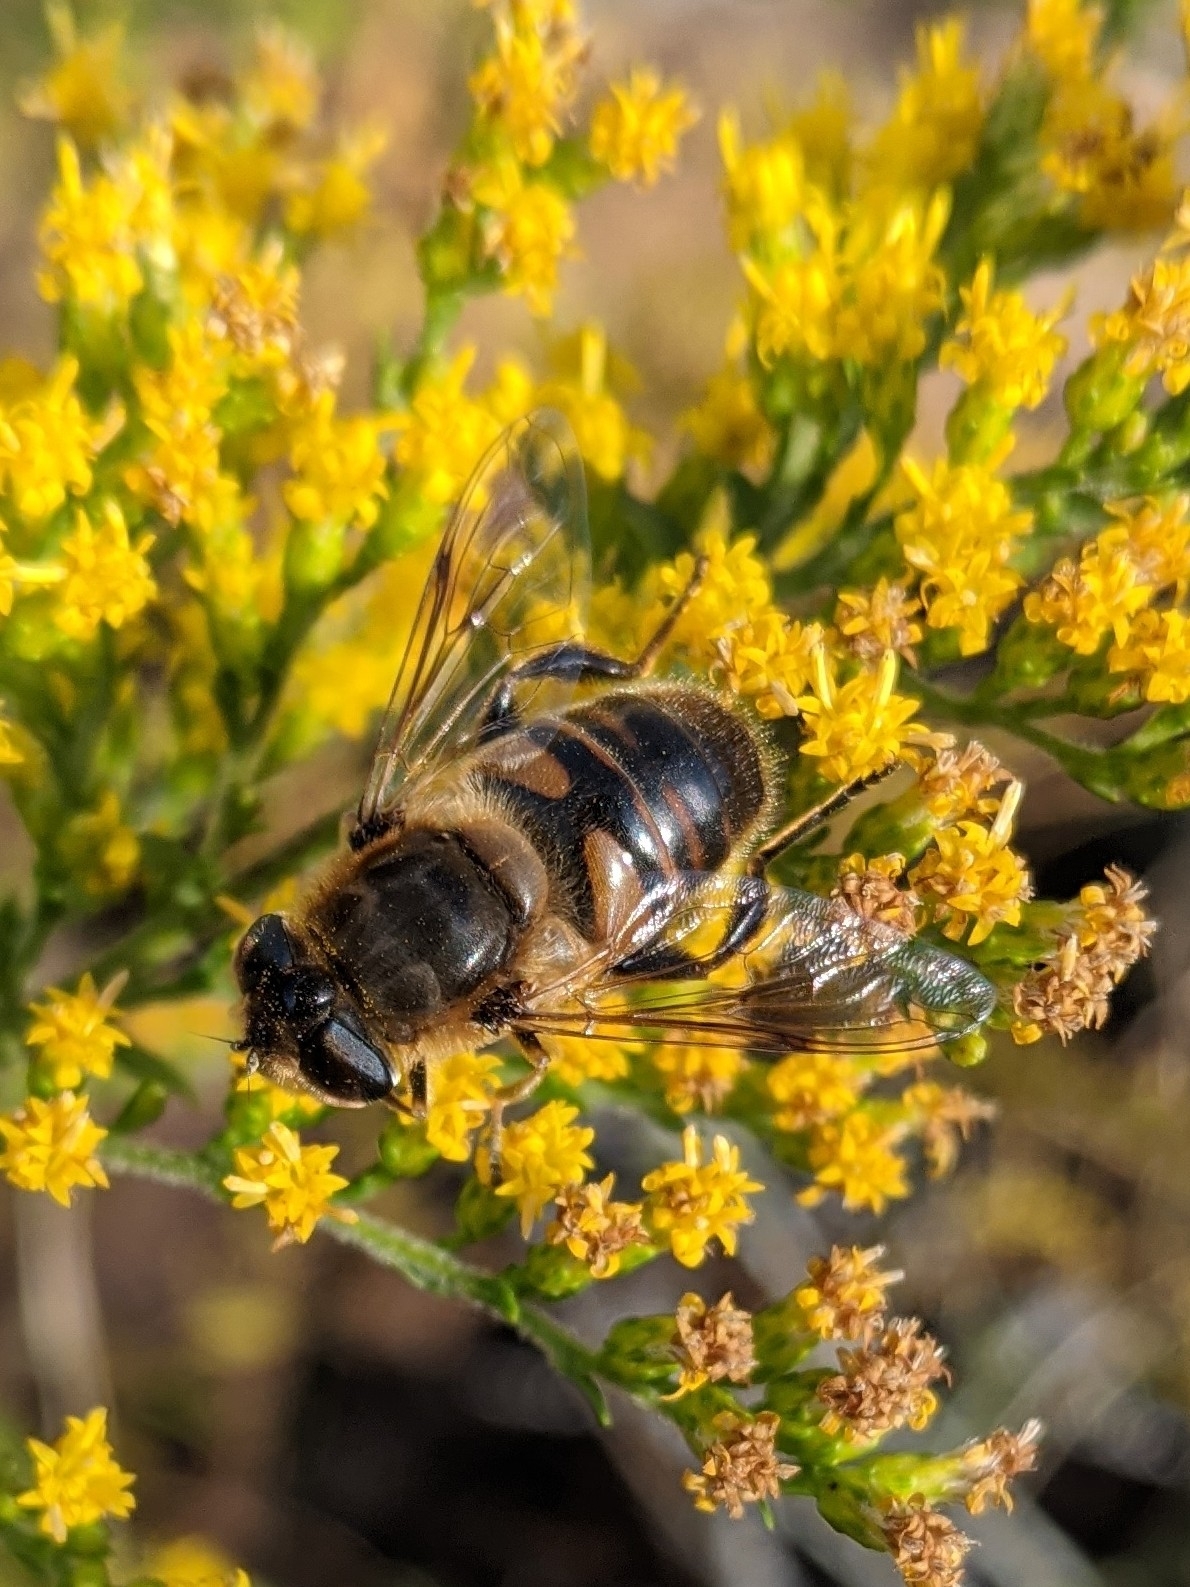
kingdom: Animalia
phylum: Arthropoda
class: Insecta
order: Diptera
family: Syrphidae
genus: Eristalis
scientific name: Eristalis tenax
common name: Drone fly
